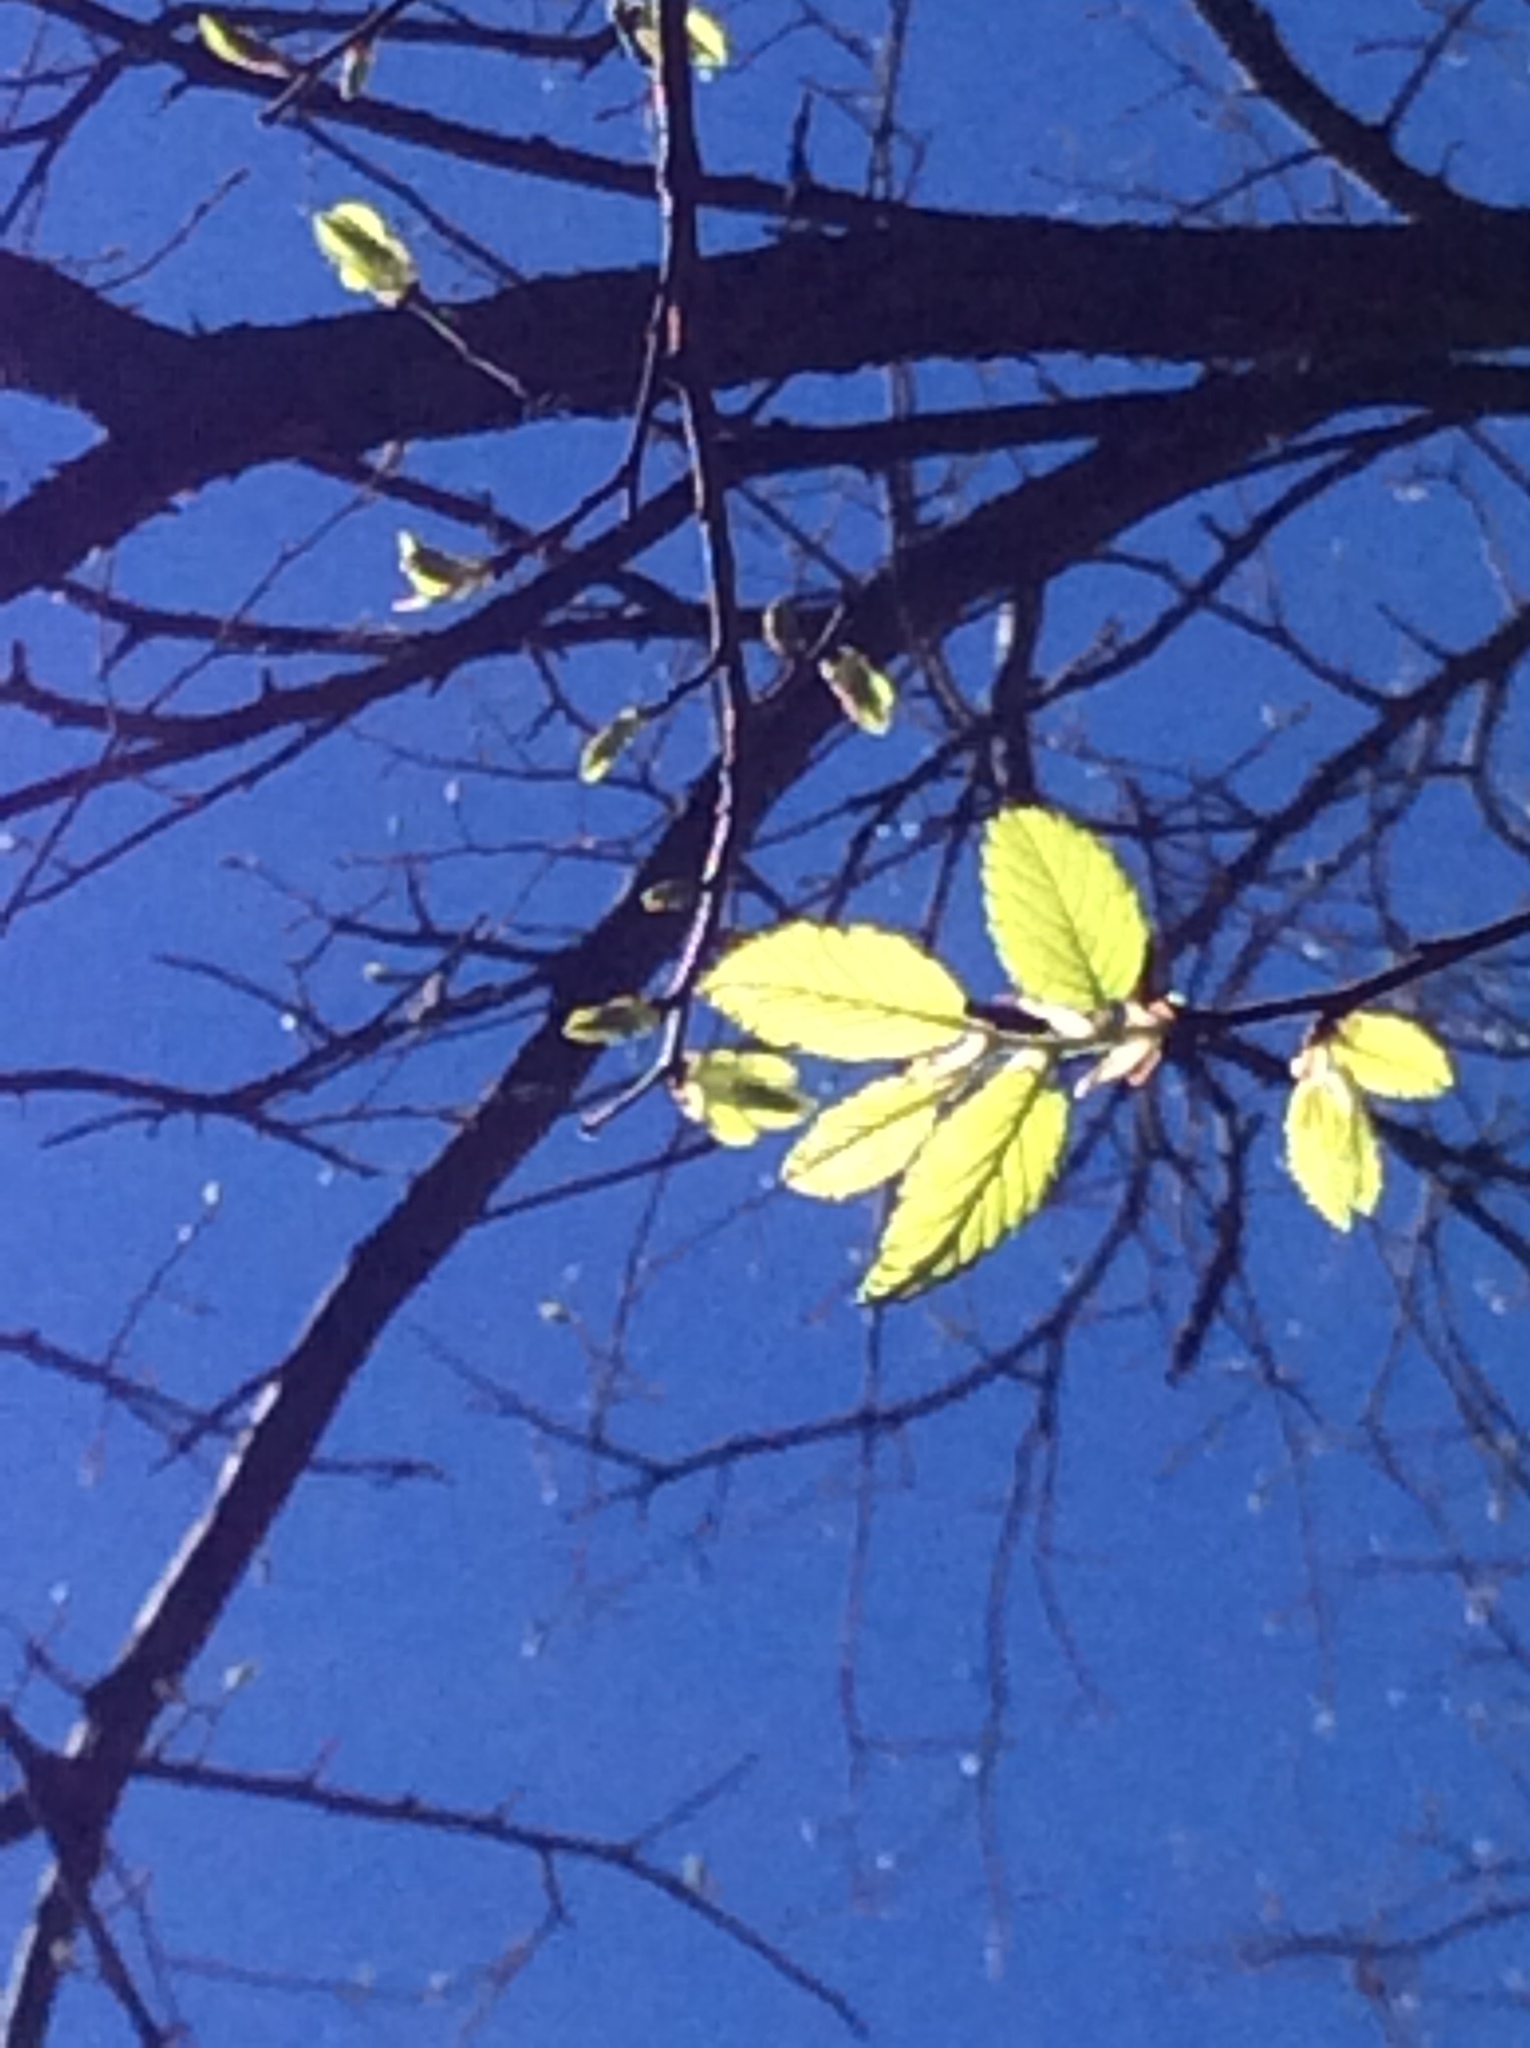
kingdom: Plantae
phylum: Tracheophyta
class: Magnoliopsida
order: Rosales
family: Ulmaceae
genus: Ulmus
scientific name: Ulmus crassifolia
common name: Basket elm
